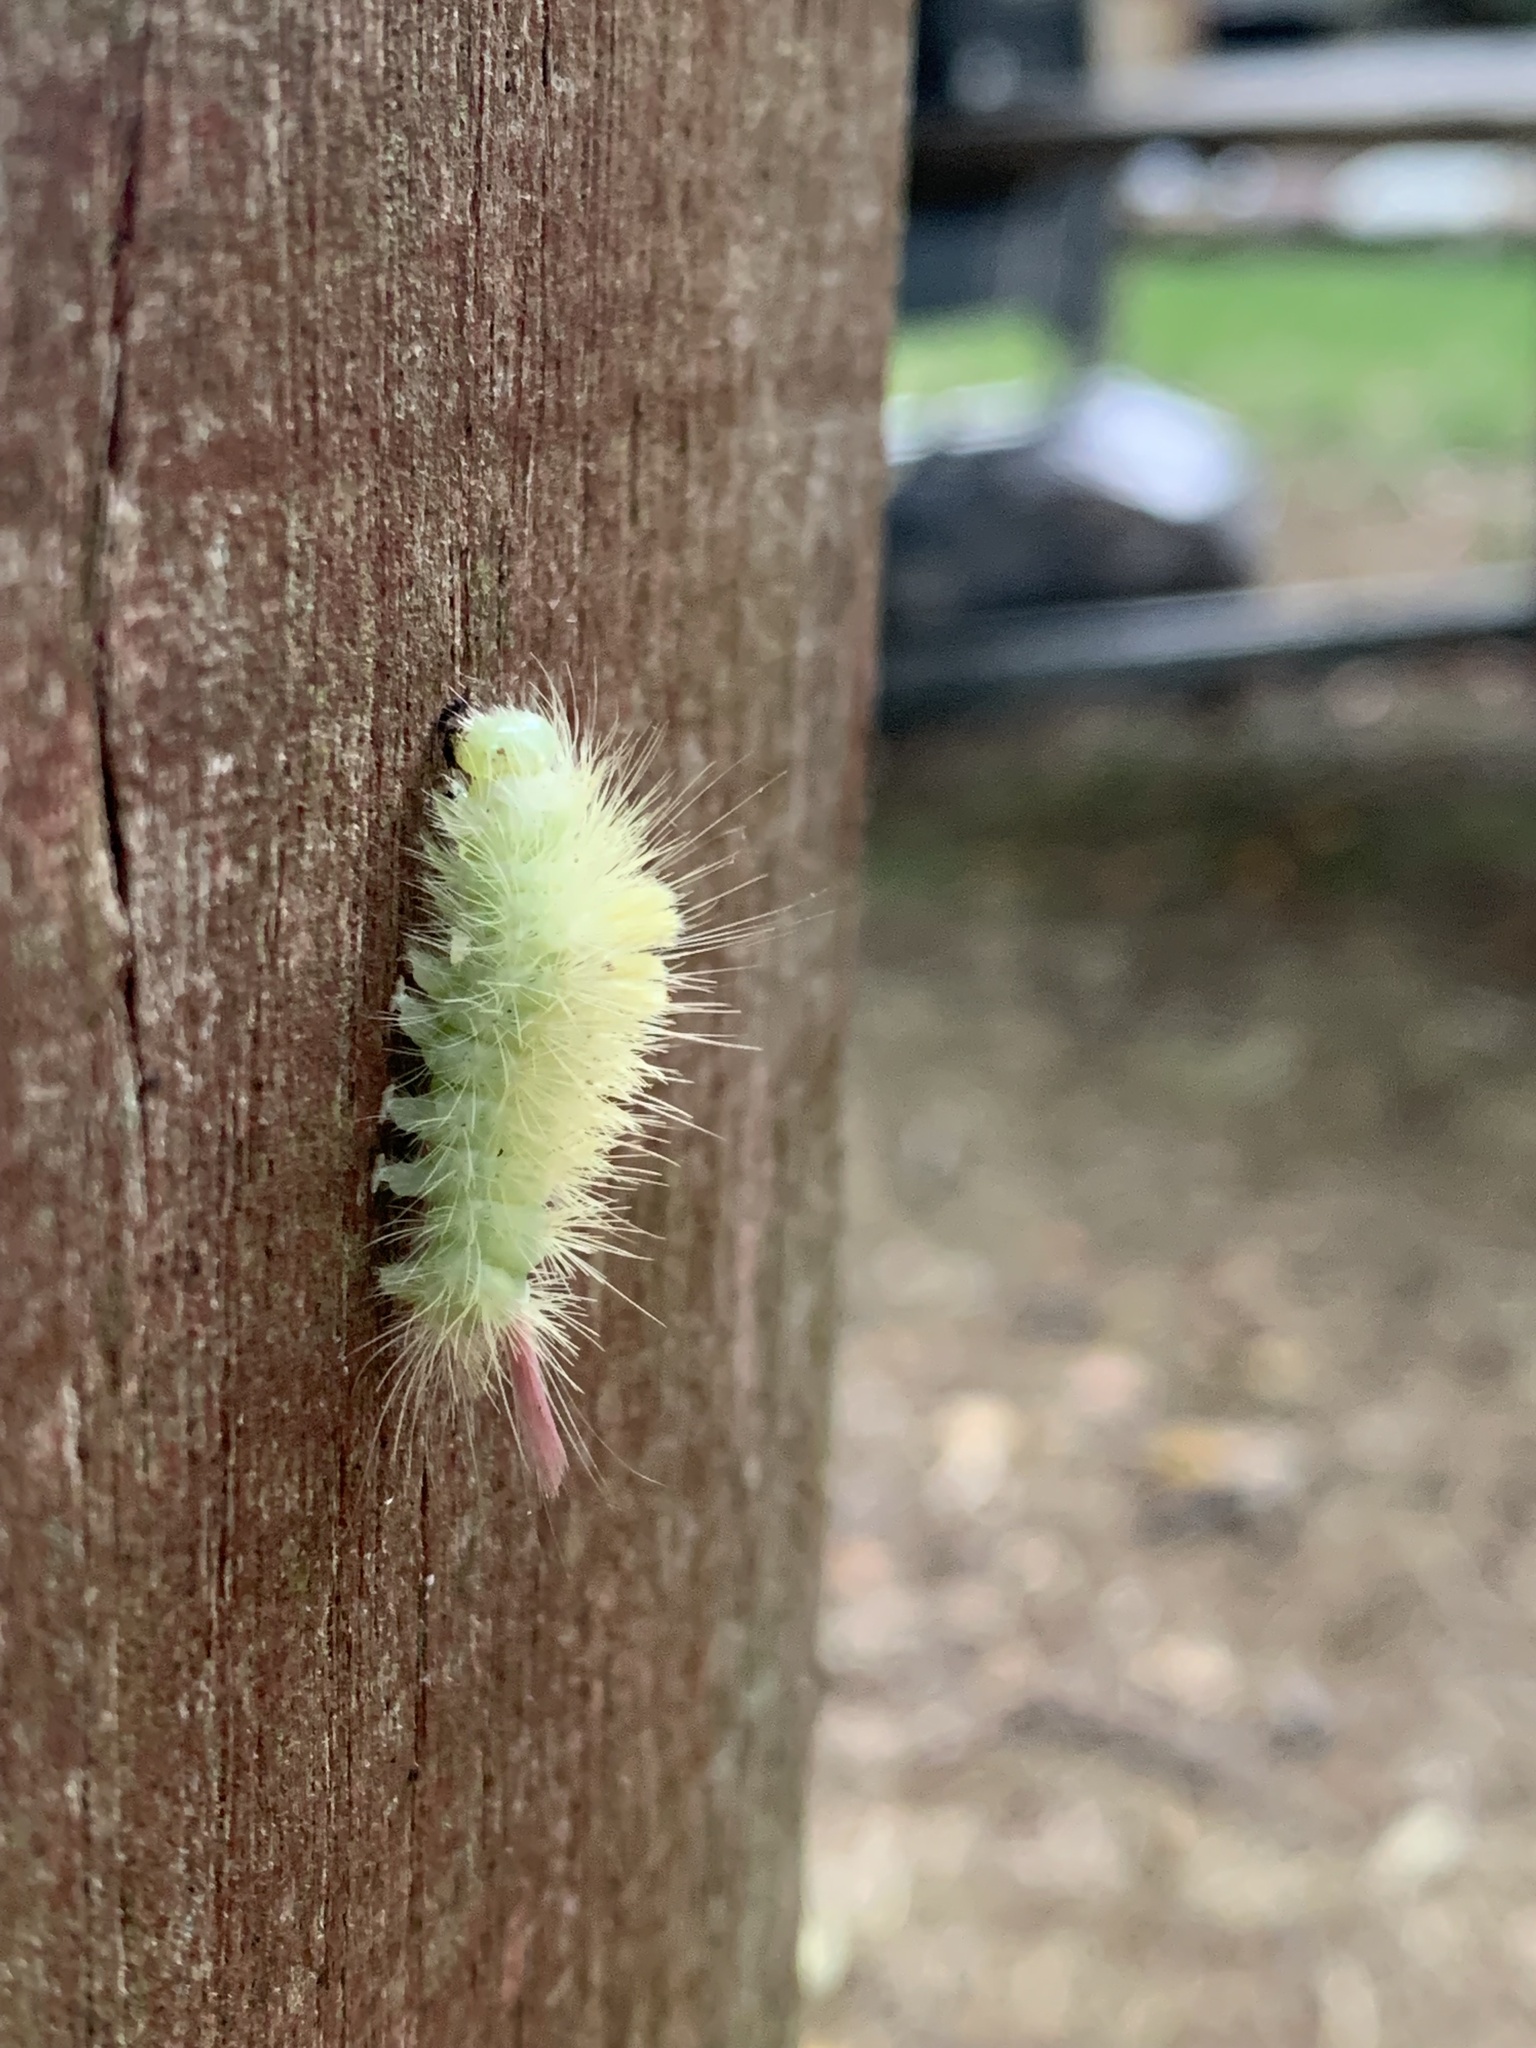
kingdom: Animalia
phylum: Arthropoda
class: Insecta
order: Lepidoptera
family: Erebidae
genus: Calliteara
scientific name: Calliteara pudibunda
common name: Pale tussock
